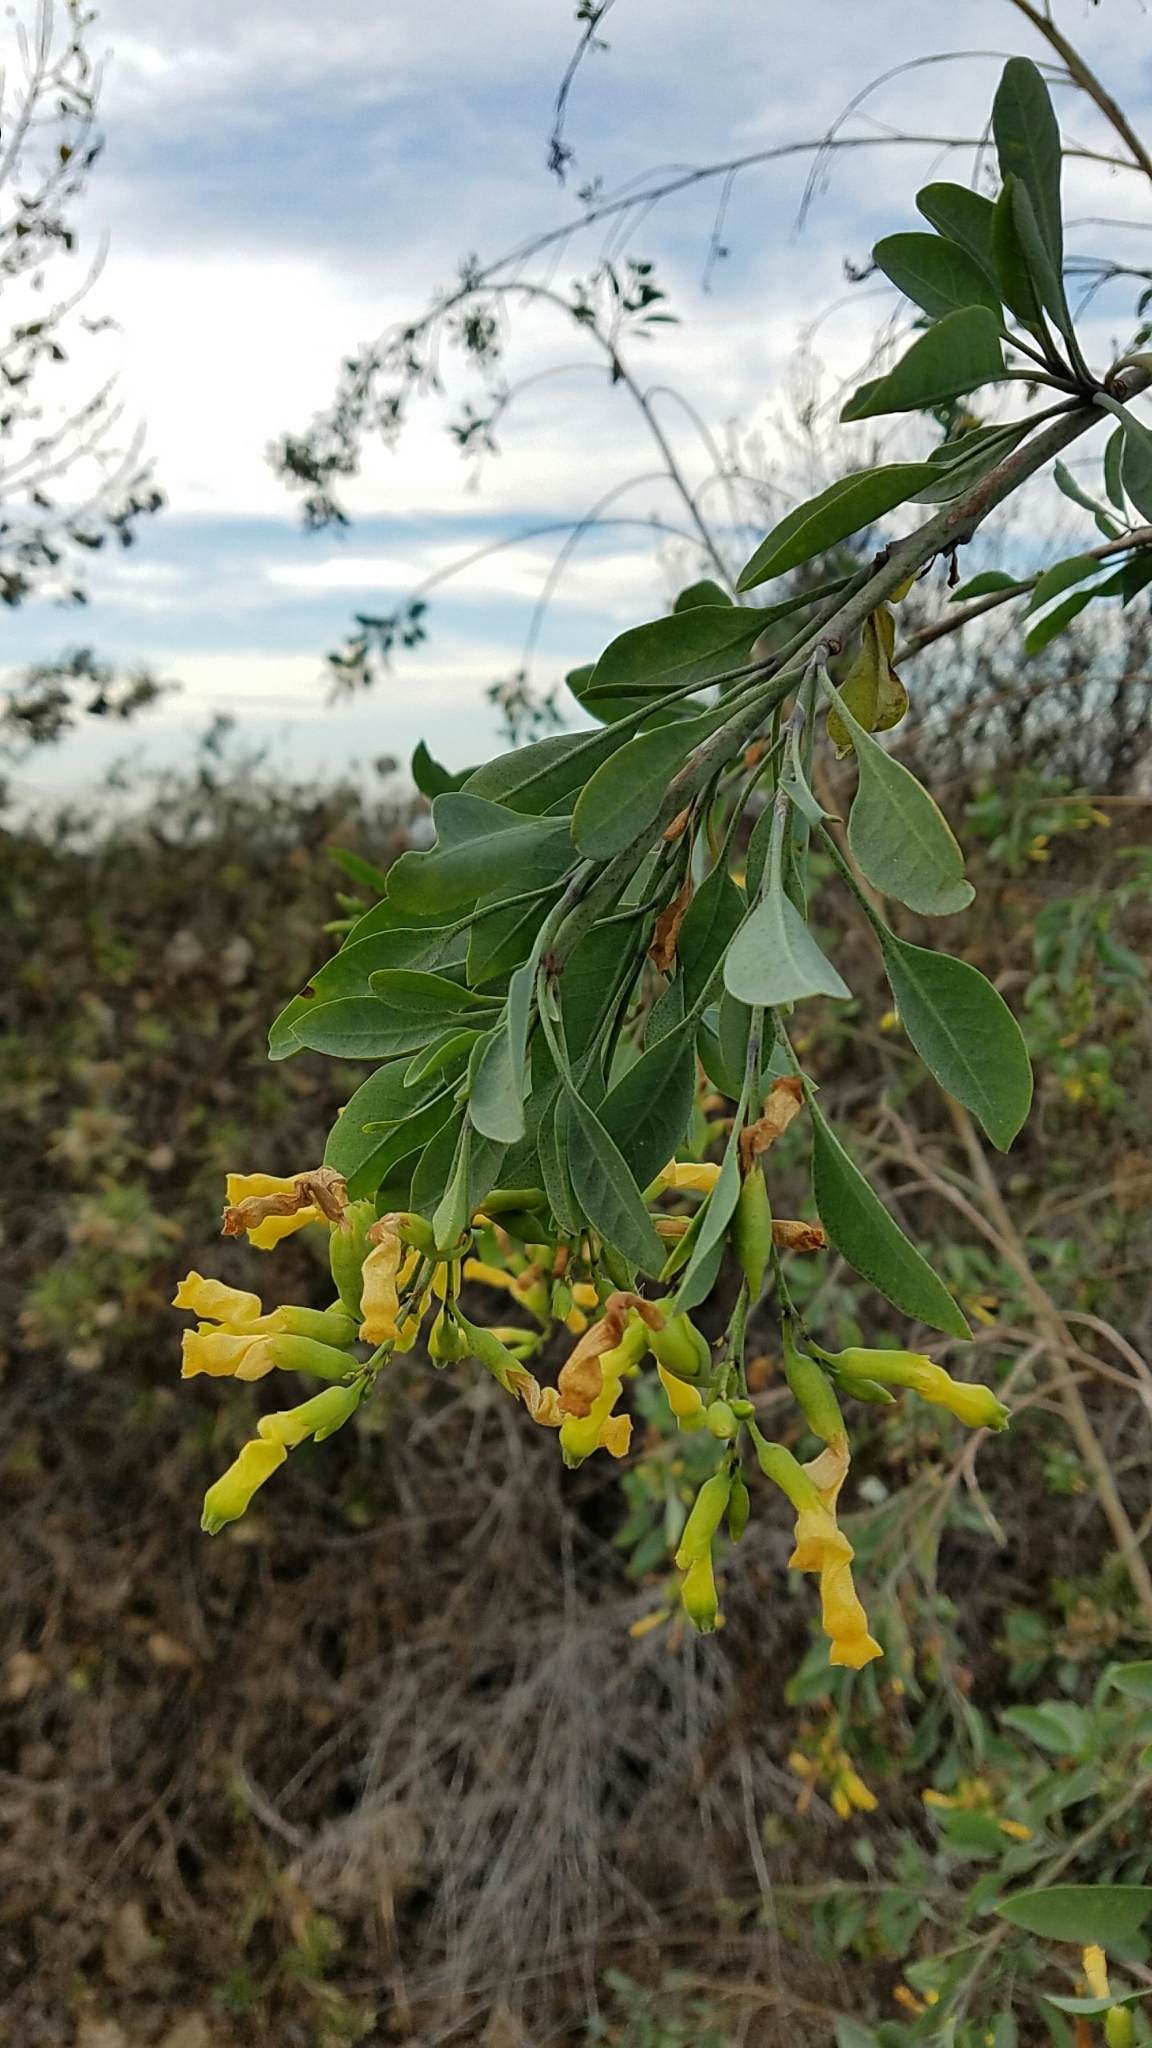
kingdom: Plantae
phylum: Tracheophyta
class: Magnoliopsida
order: Solanales
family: Solanaceae
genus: Nicotiana
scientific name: Nicotiana glauca
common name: Tree tobacco
